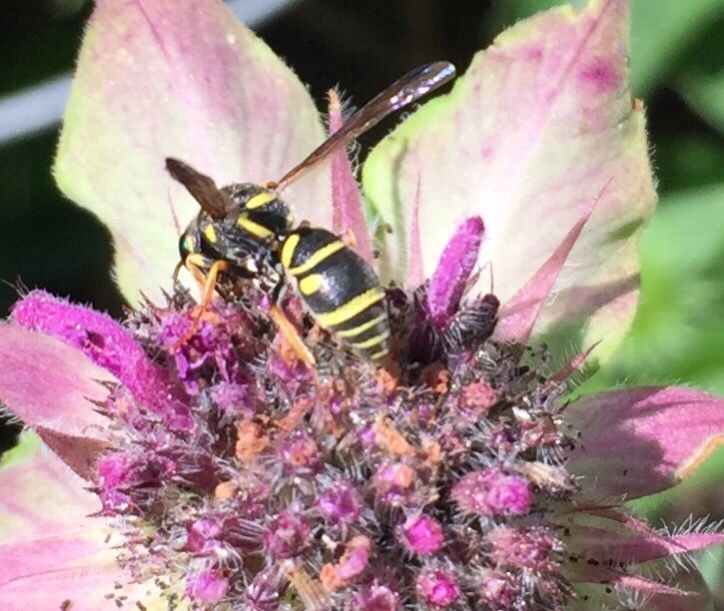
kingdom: Animalia
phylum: Arthropoda
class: Insecta
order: Hymenoptera
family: Eumenidae
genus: Parancistrocerus
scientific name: Parancistrocerus leionotus
